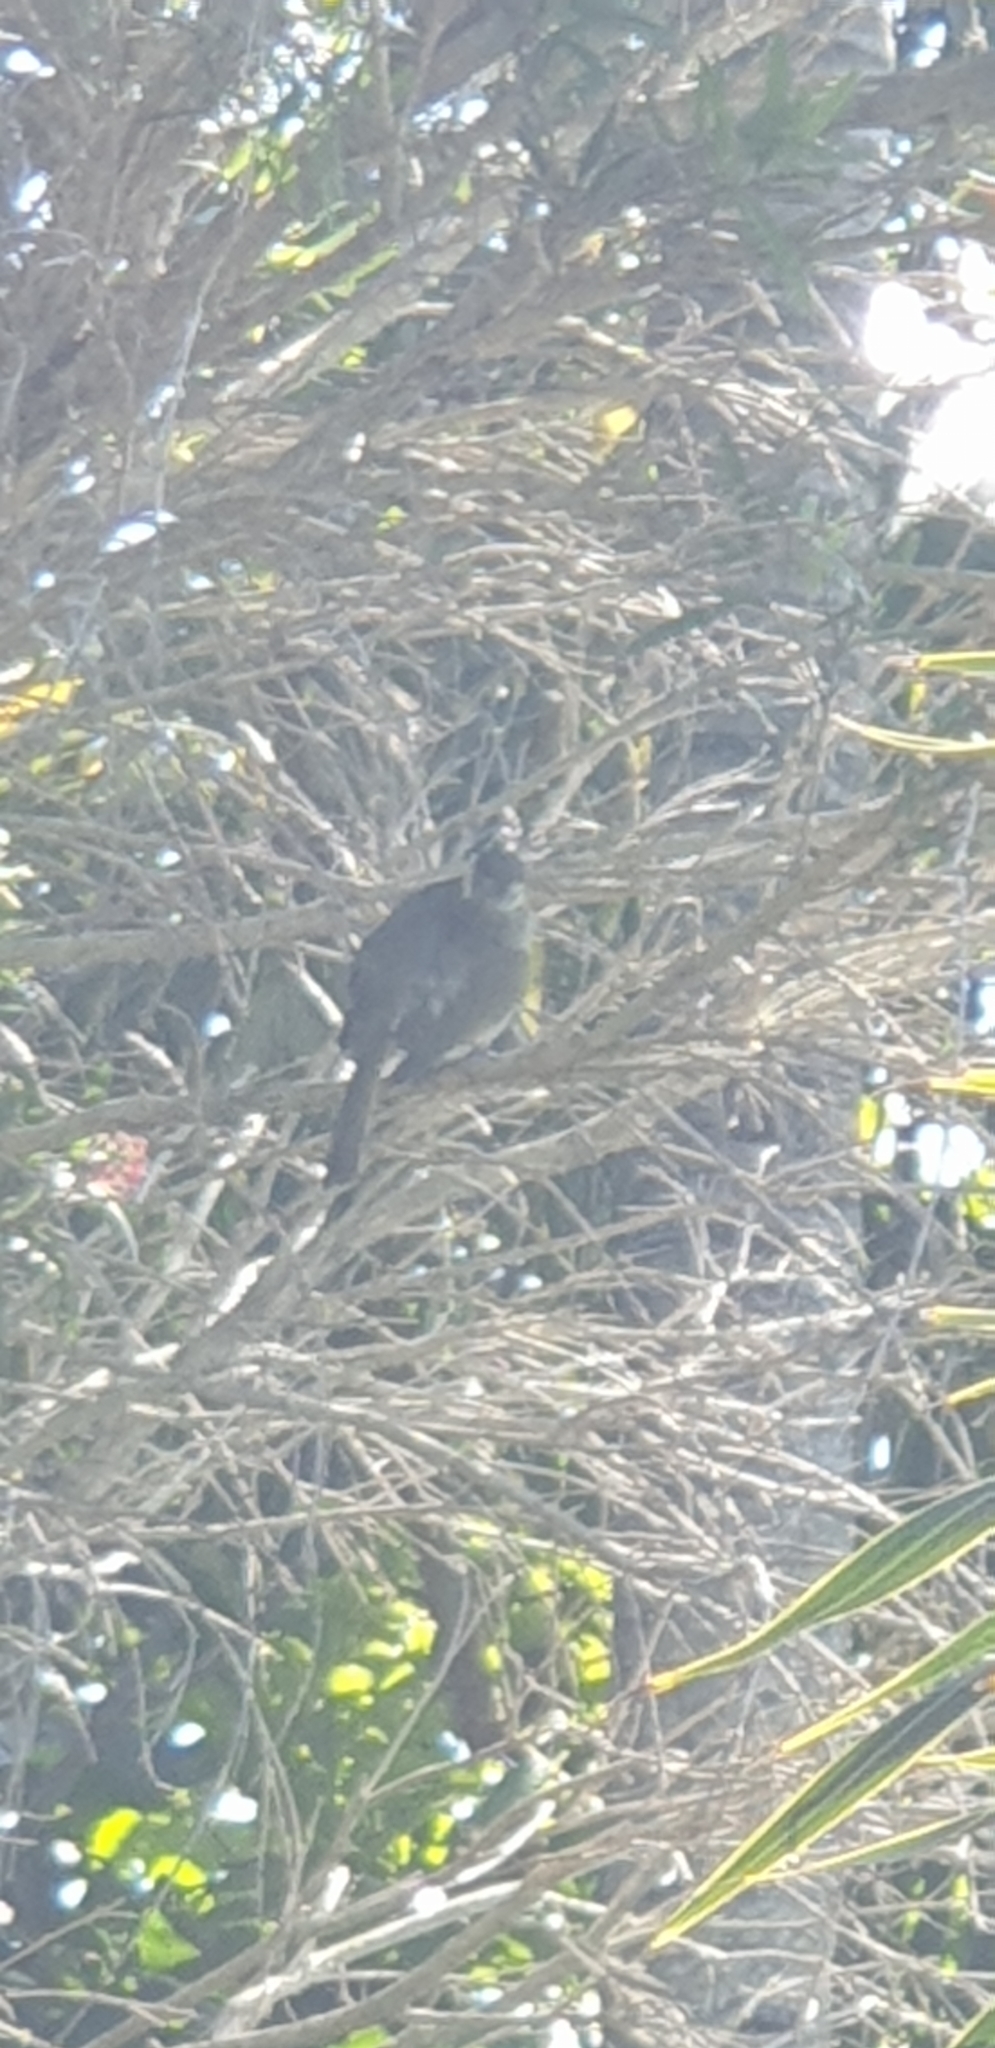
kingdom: Animalia
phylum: Chordata
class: Aves
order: Passeriformes
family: Meliphagidae
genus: Meliphaga
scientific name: Meliphaga lewinii
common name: Lewin's honeyeater
